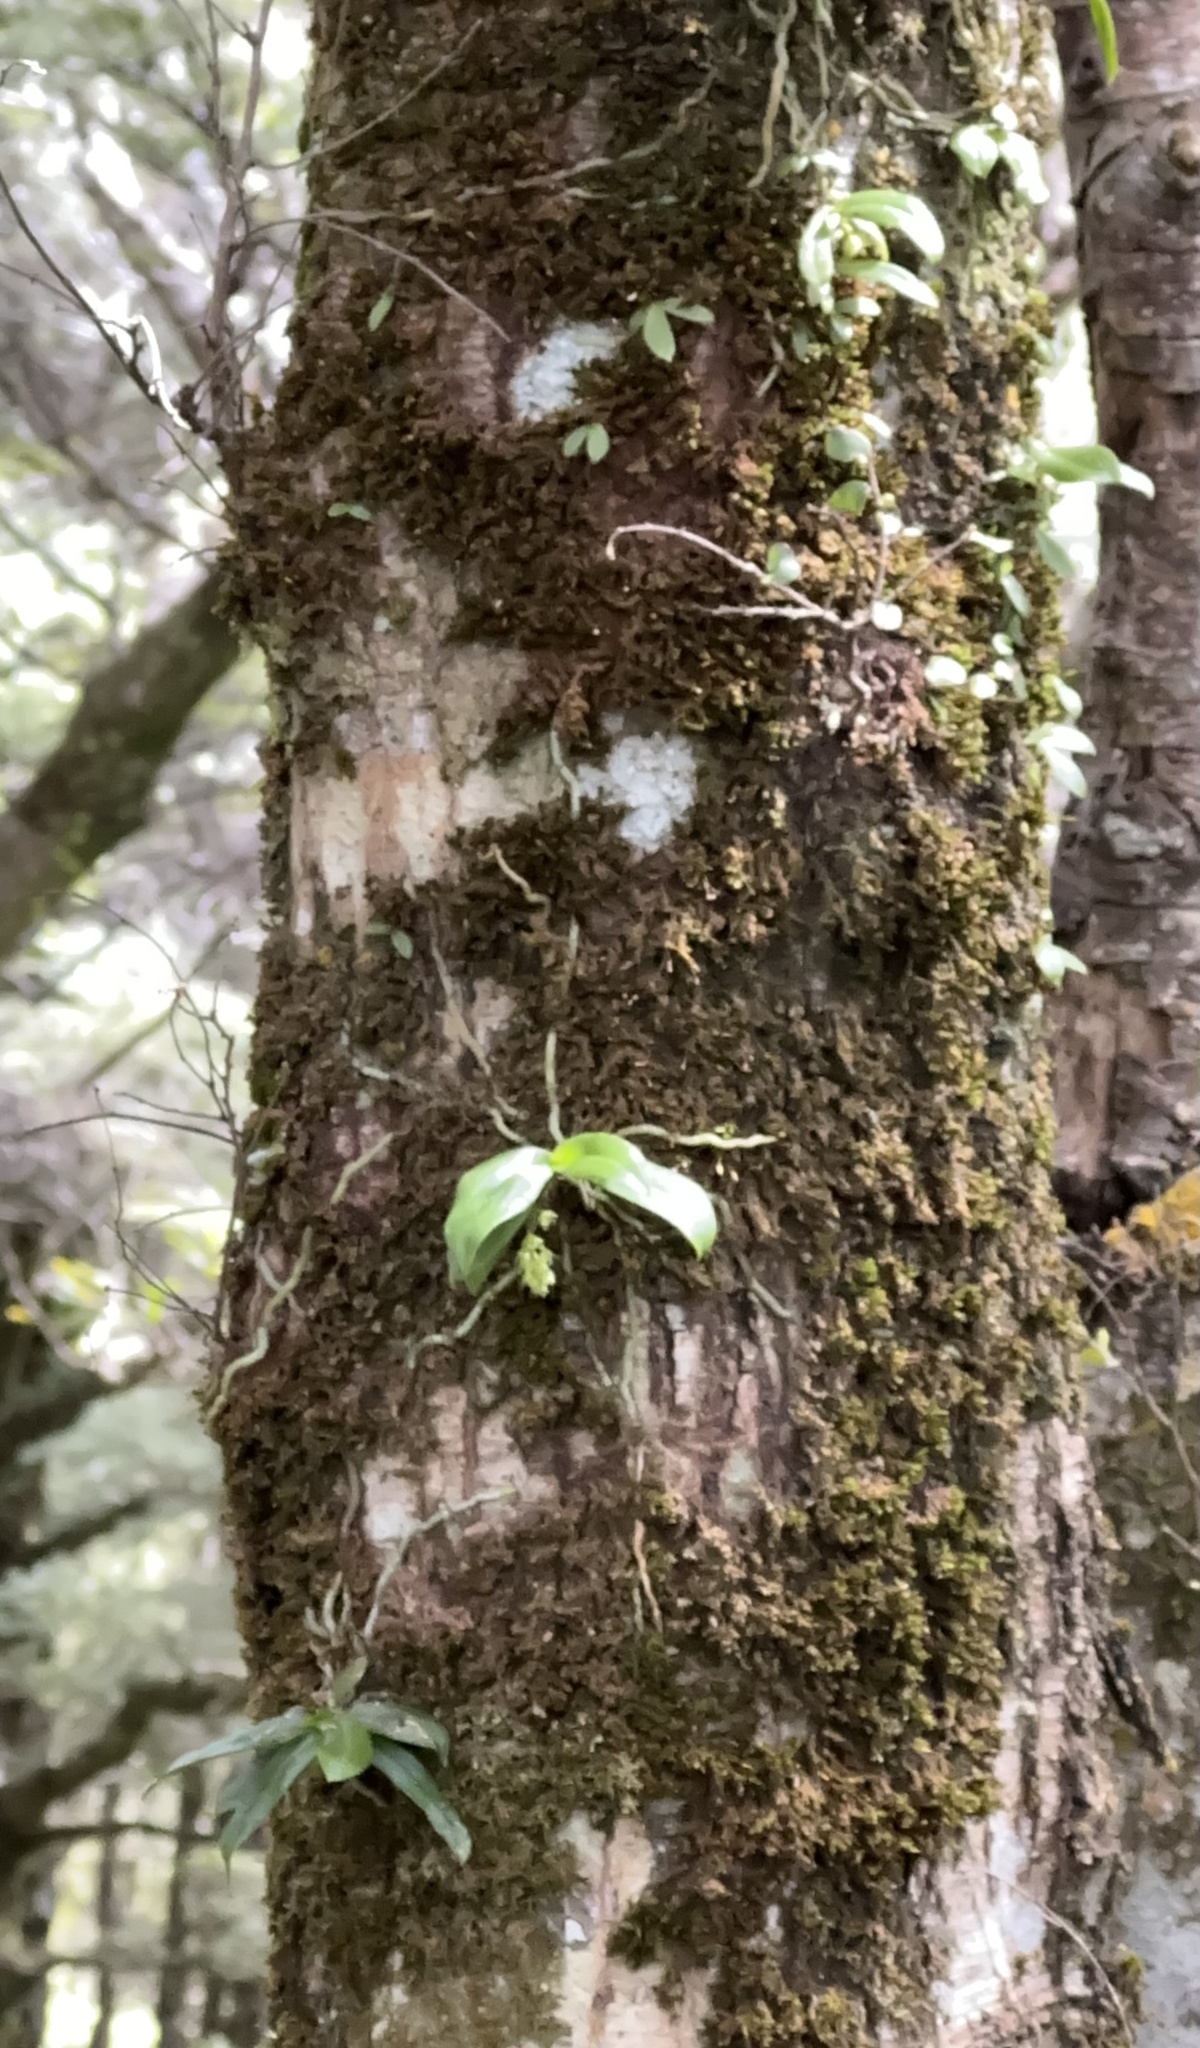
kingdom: Plantae
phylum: Tracheophyta
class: Liliopsida
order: Asparagales
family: Orchidaceae
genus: Drymoanthus
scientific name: Drymoanthus adversus
